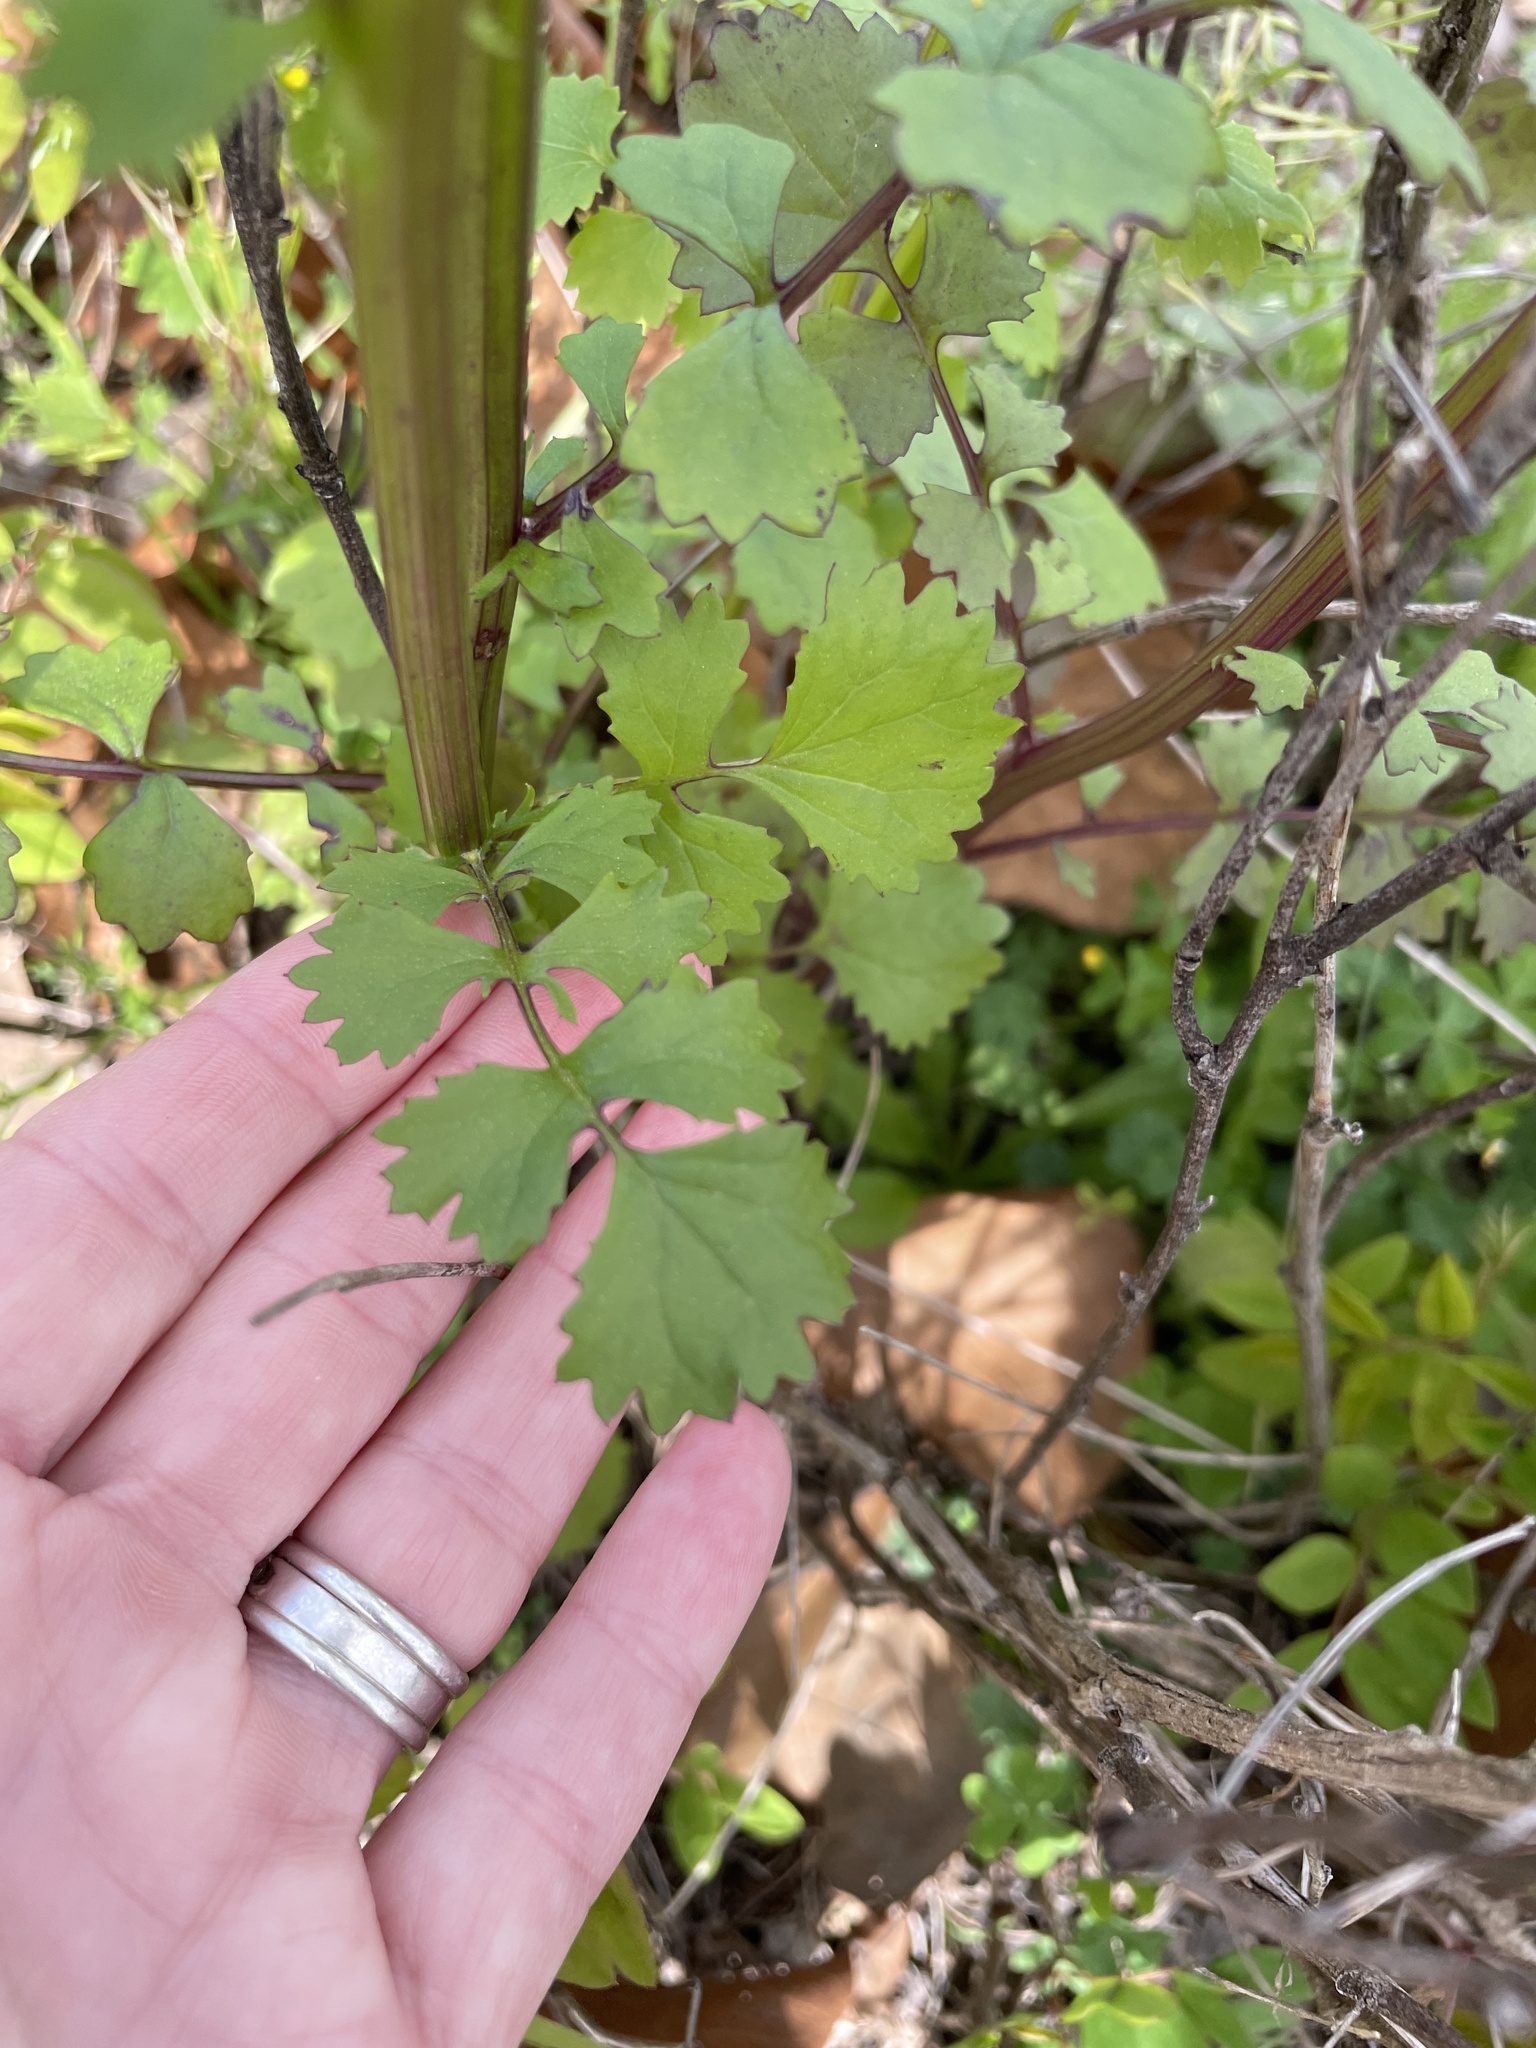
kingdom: Plantae
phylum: Tracheophyta
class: Magnoliopsida
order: Asterales
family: Asteraceae
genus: Packera
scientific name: Packera glabella
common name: Butterweed
